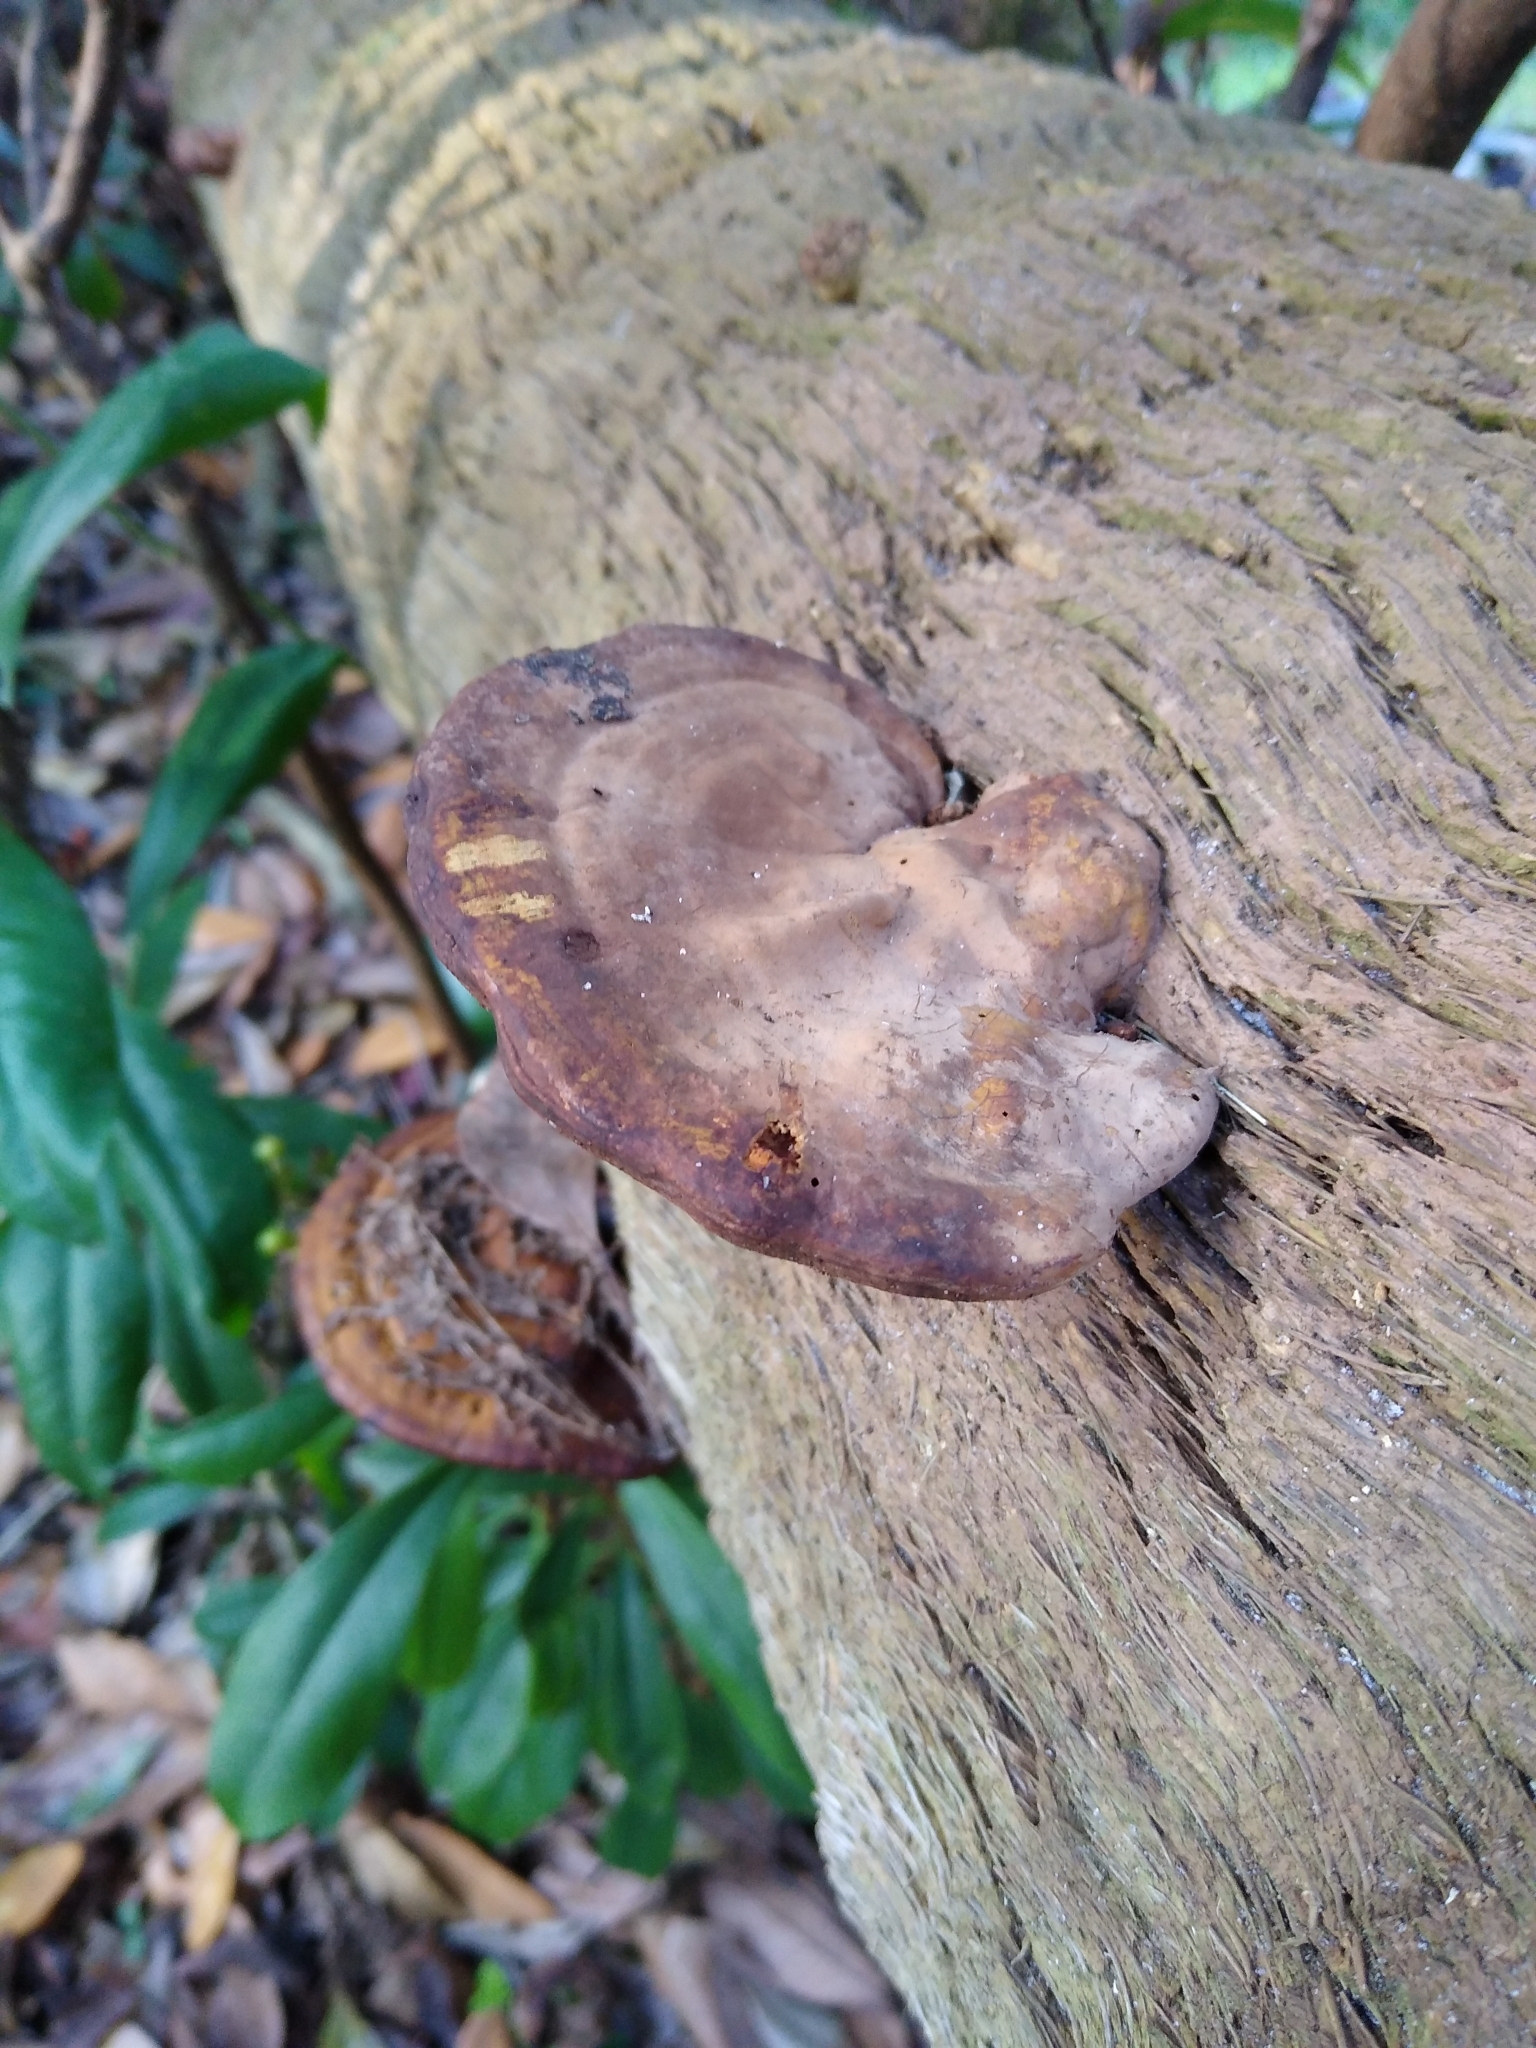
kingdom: Fungi
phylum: Basidiomycota
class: Agaricomycetes
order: Polyporales
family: Polyporaceae
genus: Ganoderma
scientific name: Ganoderma zonatum
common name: Ganoderma butt rot
